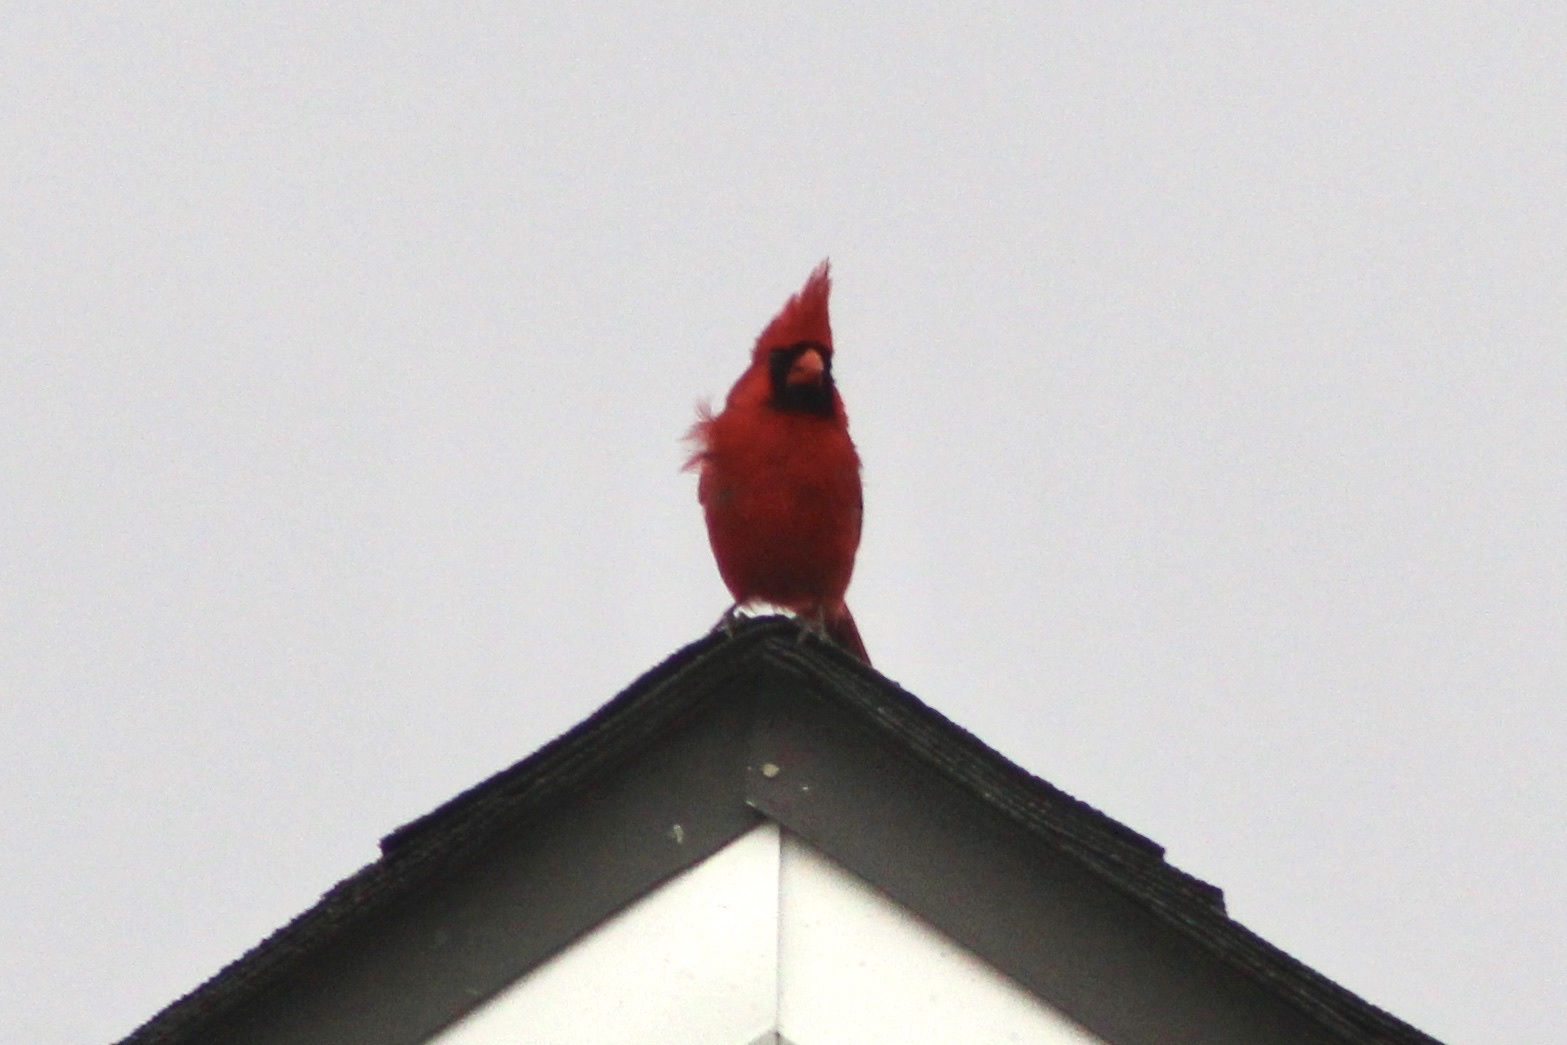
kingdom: Animalia
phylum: Chordata
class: Aves
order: Passeriformes
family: Cardinalidae
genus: Cardinalis
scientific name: Cardinalis cardinalis
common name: Northern cardinal
